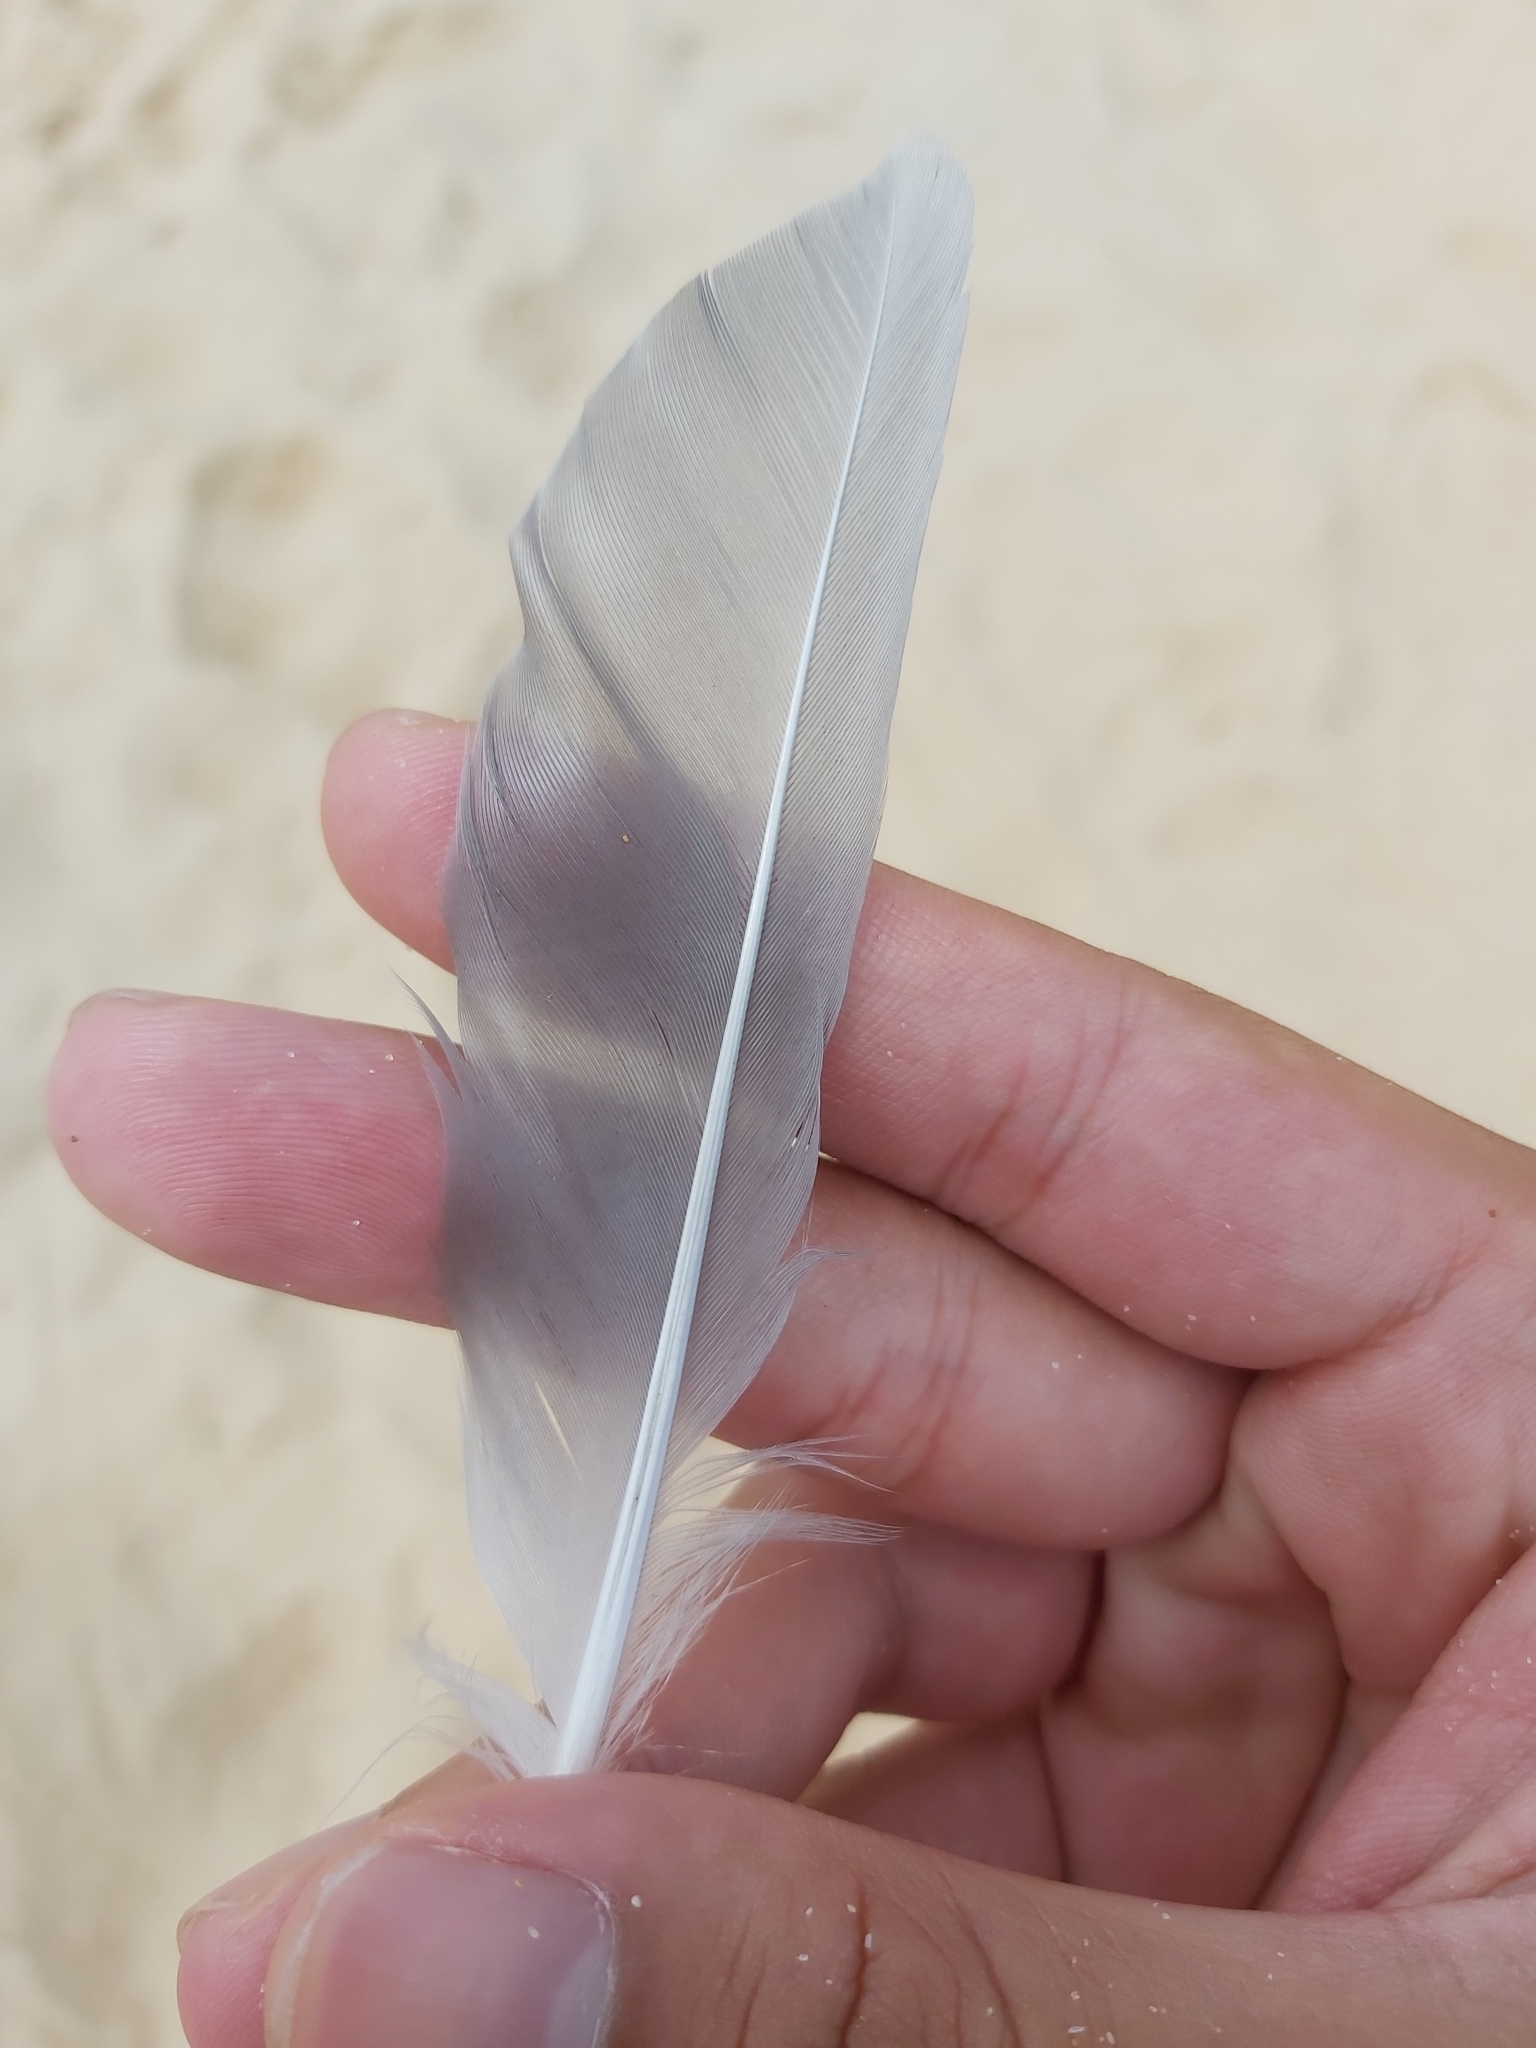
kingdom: Animalia
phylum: Chordata
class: Aves
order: Charadriiformes
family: Laridae
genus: Chroicocephalus
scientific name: Chroicocephalus novaehollandiae
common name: Silver gull
